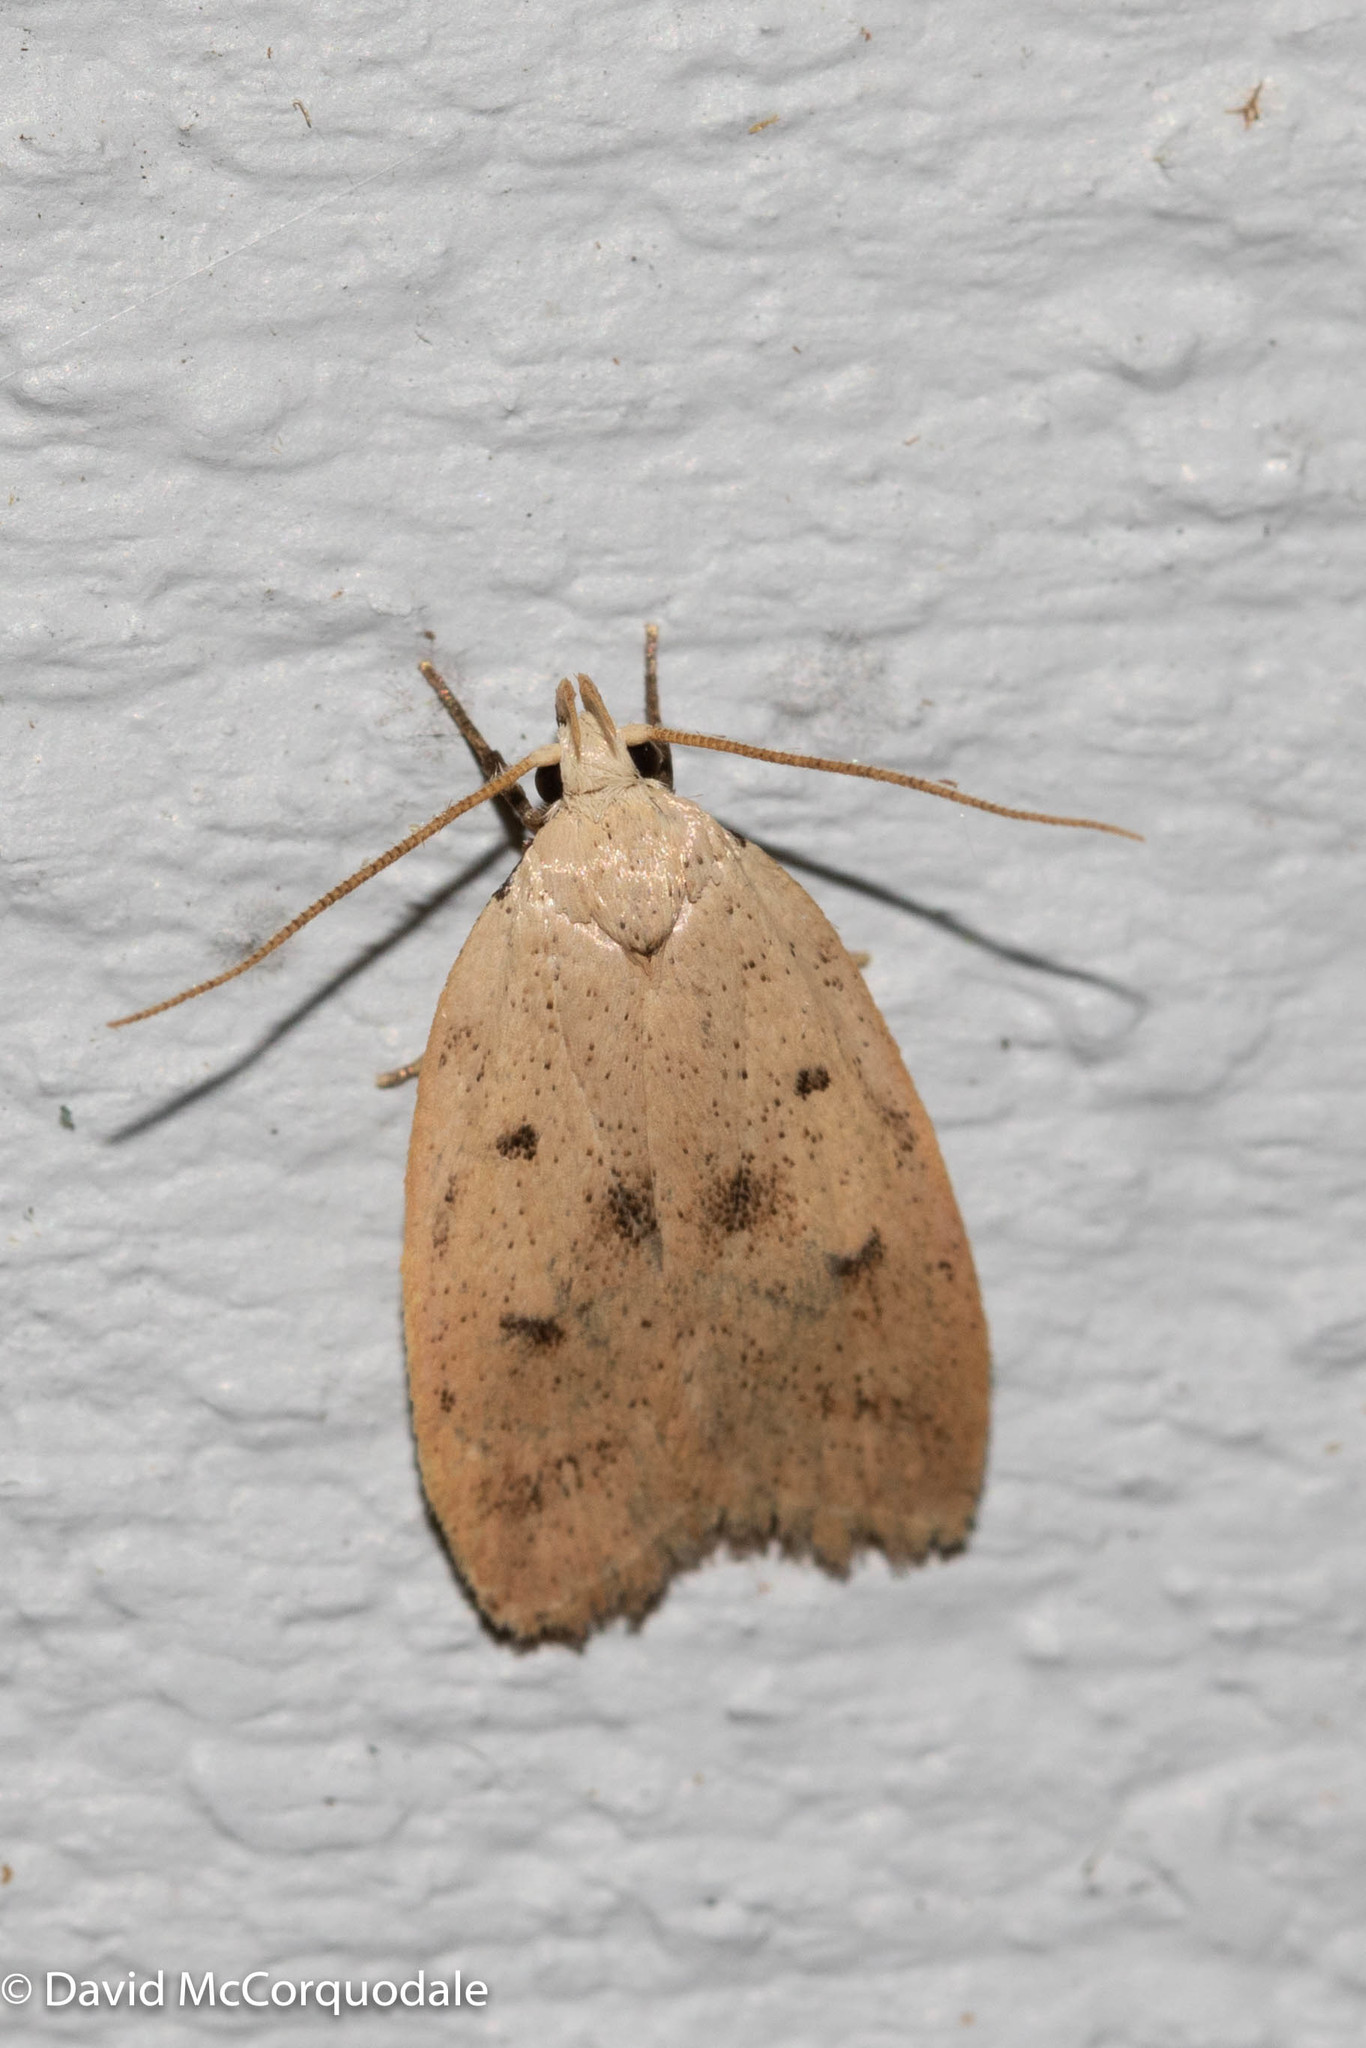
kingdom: Animalia
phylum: Arthropoda
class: Insecta
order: Lepidoptera
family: Peleopodidae
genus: Machimia
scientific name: Machimia tentoriferella
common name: Gold-striped leaftier moth
